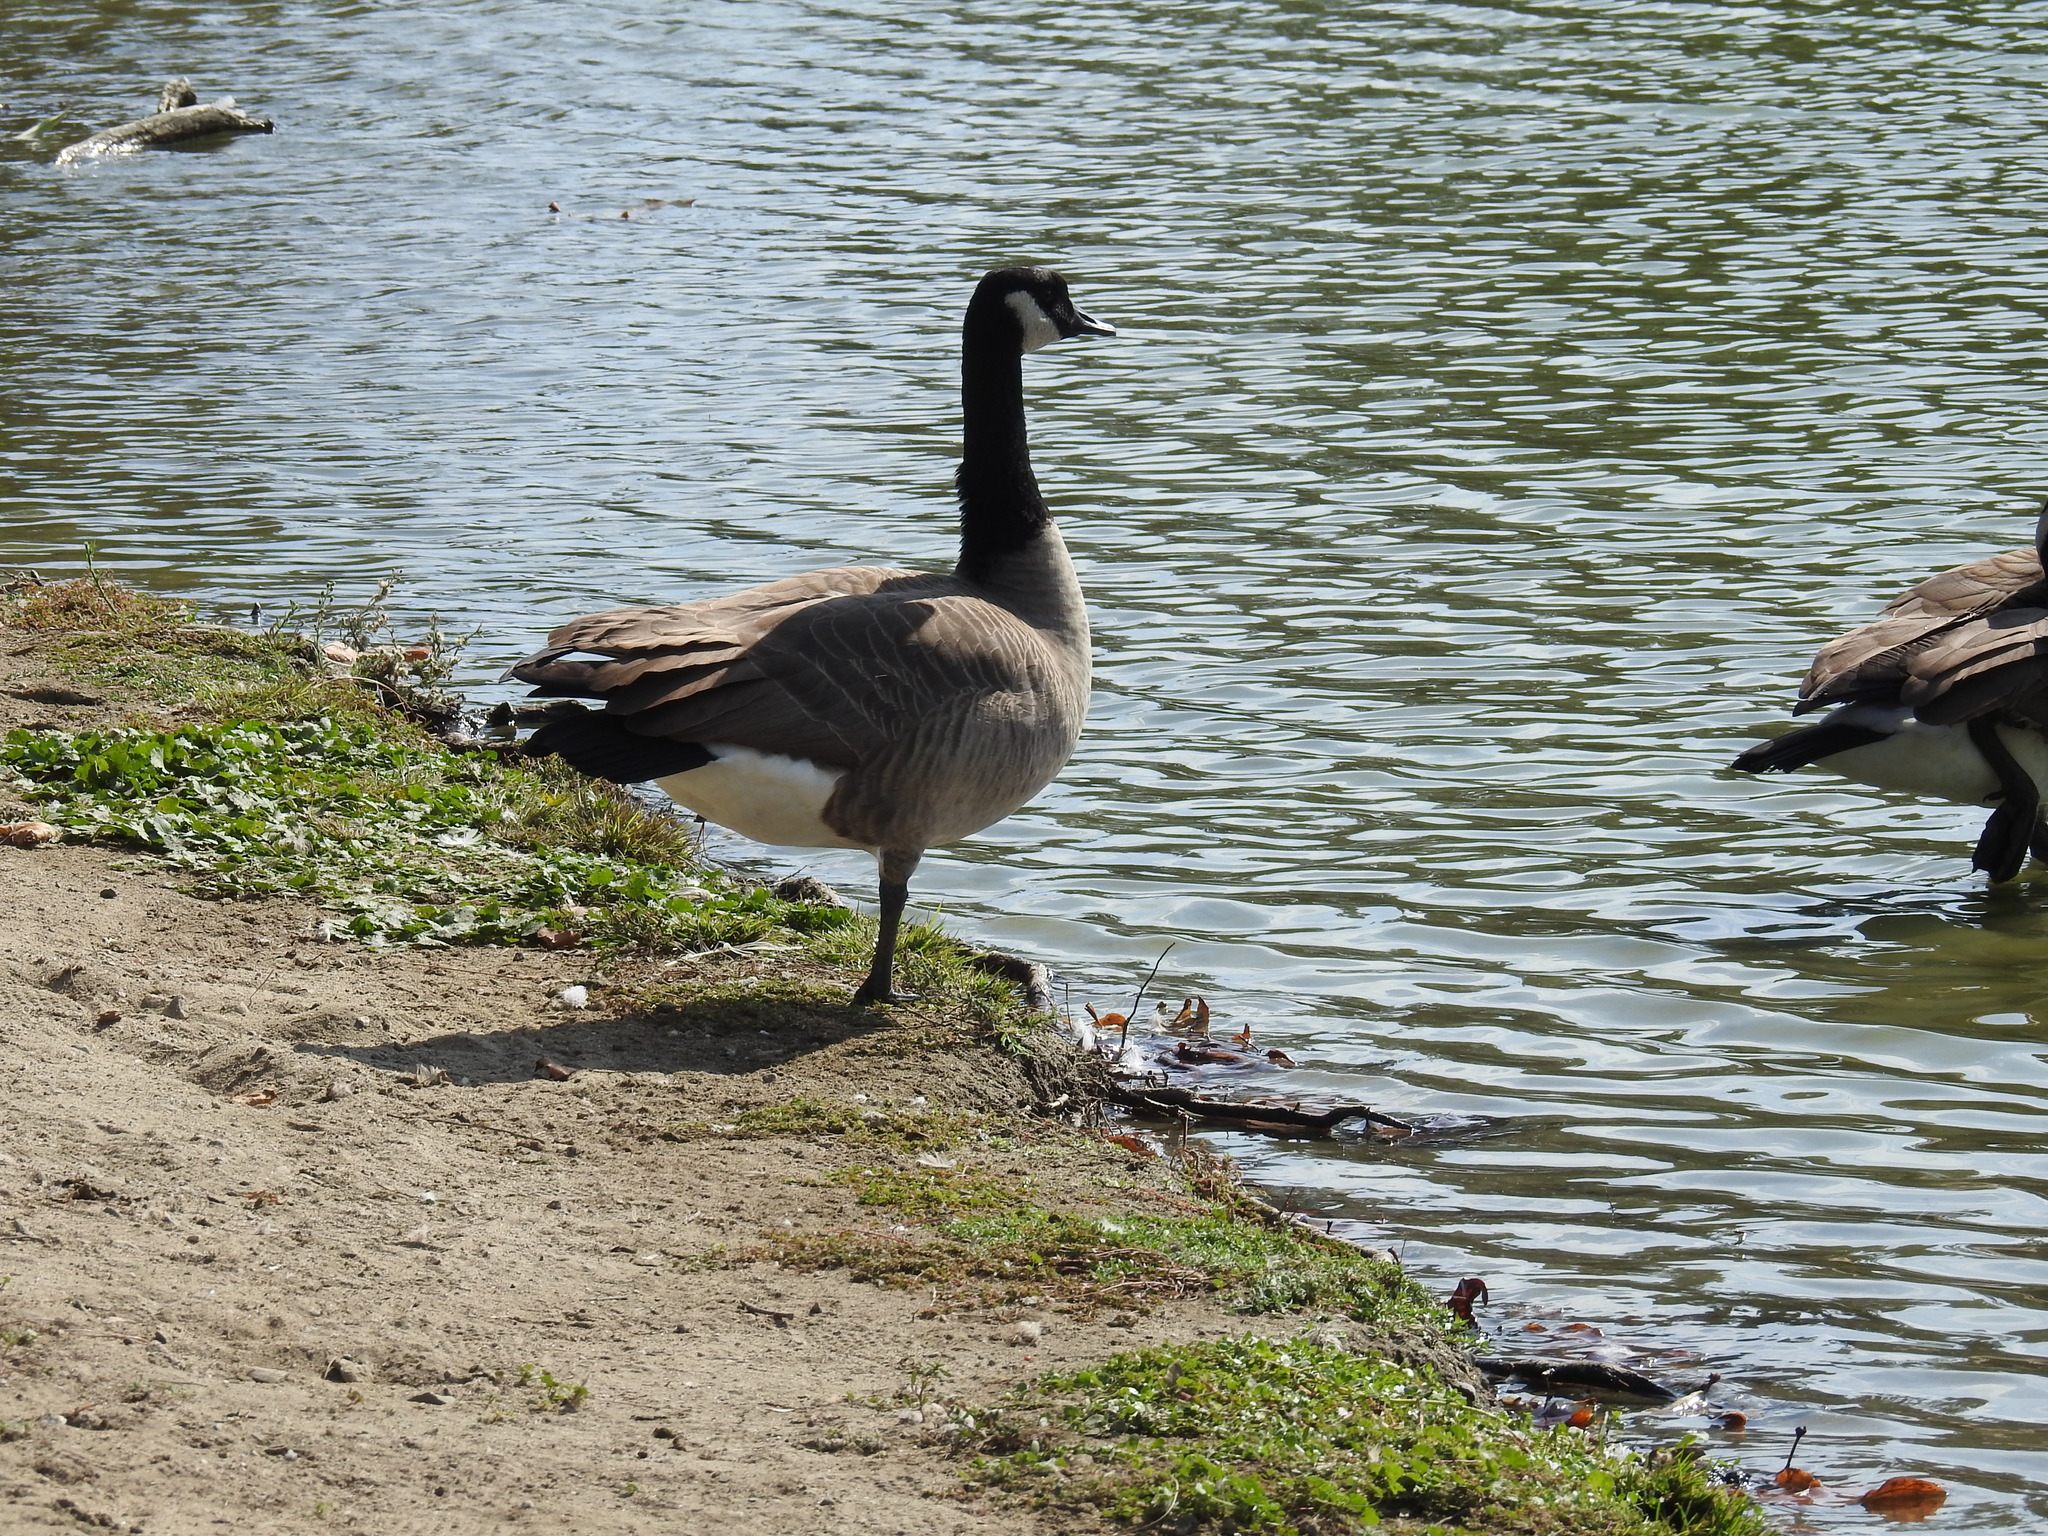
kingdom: Animalia
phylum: Chordata
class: Aves
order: Anseriformes
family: Anatidae
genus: Branta
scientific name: Branta canadensis
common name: Canada goose
